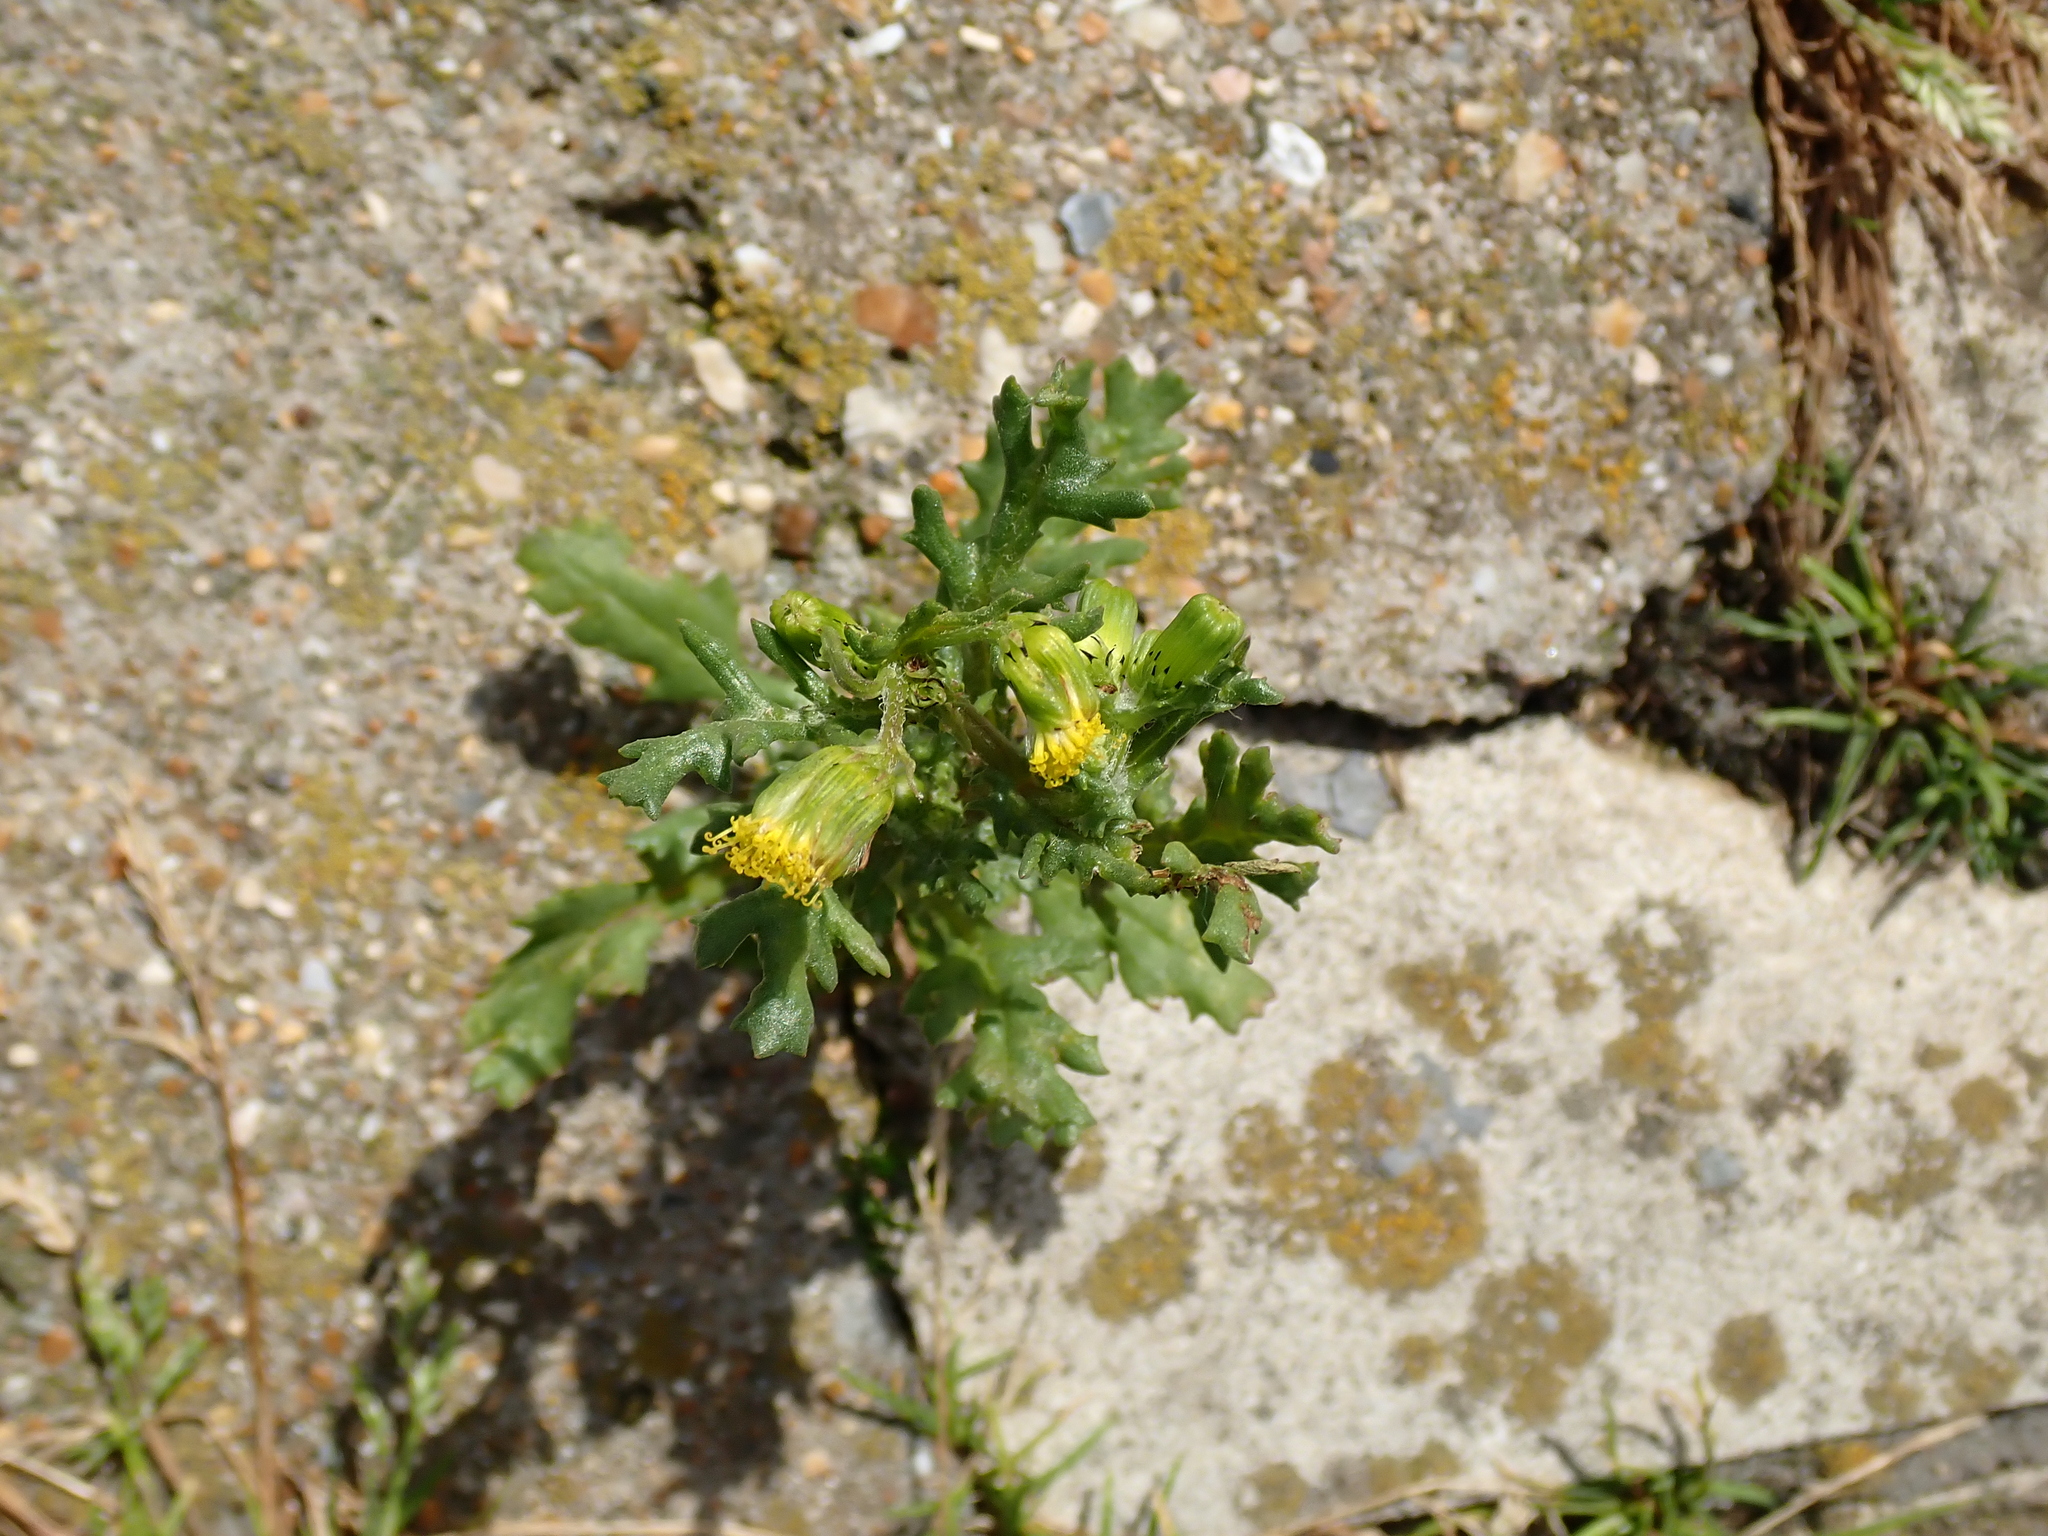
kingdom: Plantae
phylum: Tracheophyta
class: Magnoliopsida
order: Asterales
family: Asteraceae
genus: Senecio
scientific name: Senecio vulgaris
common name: Old-man-in-the-spring
